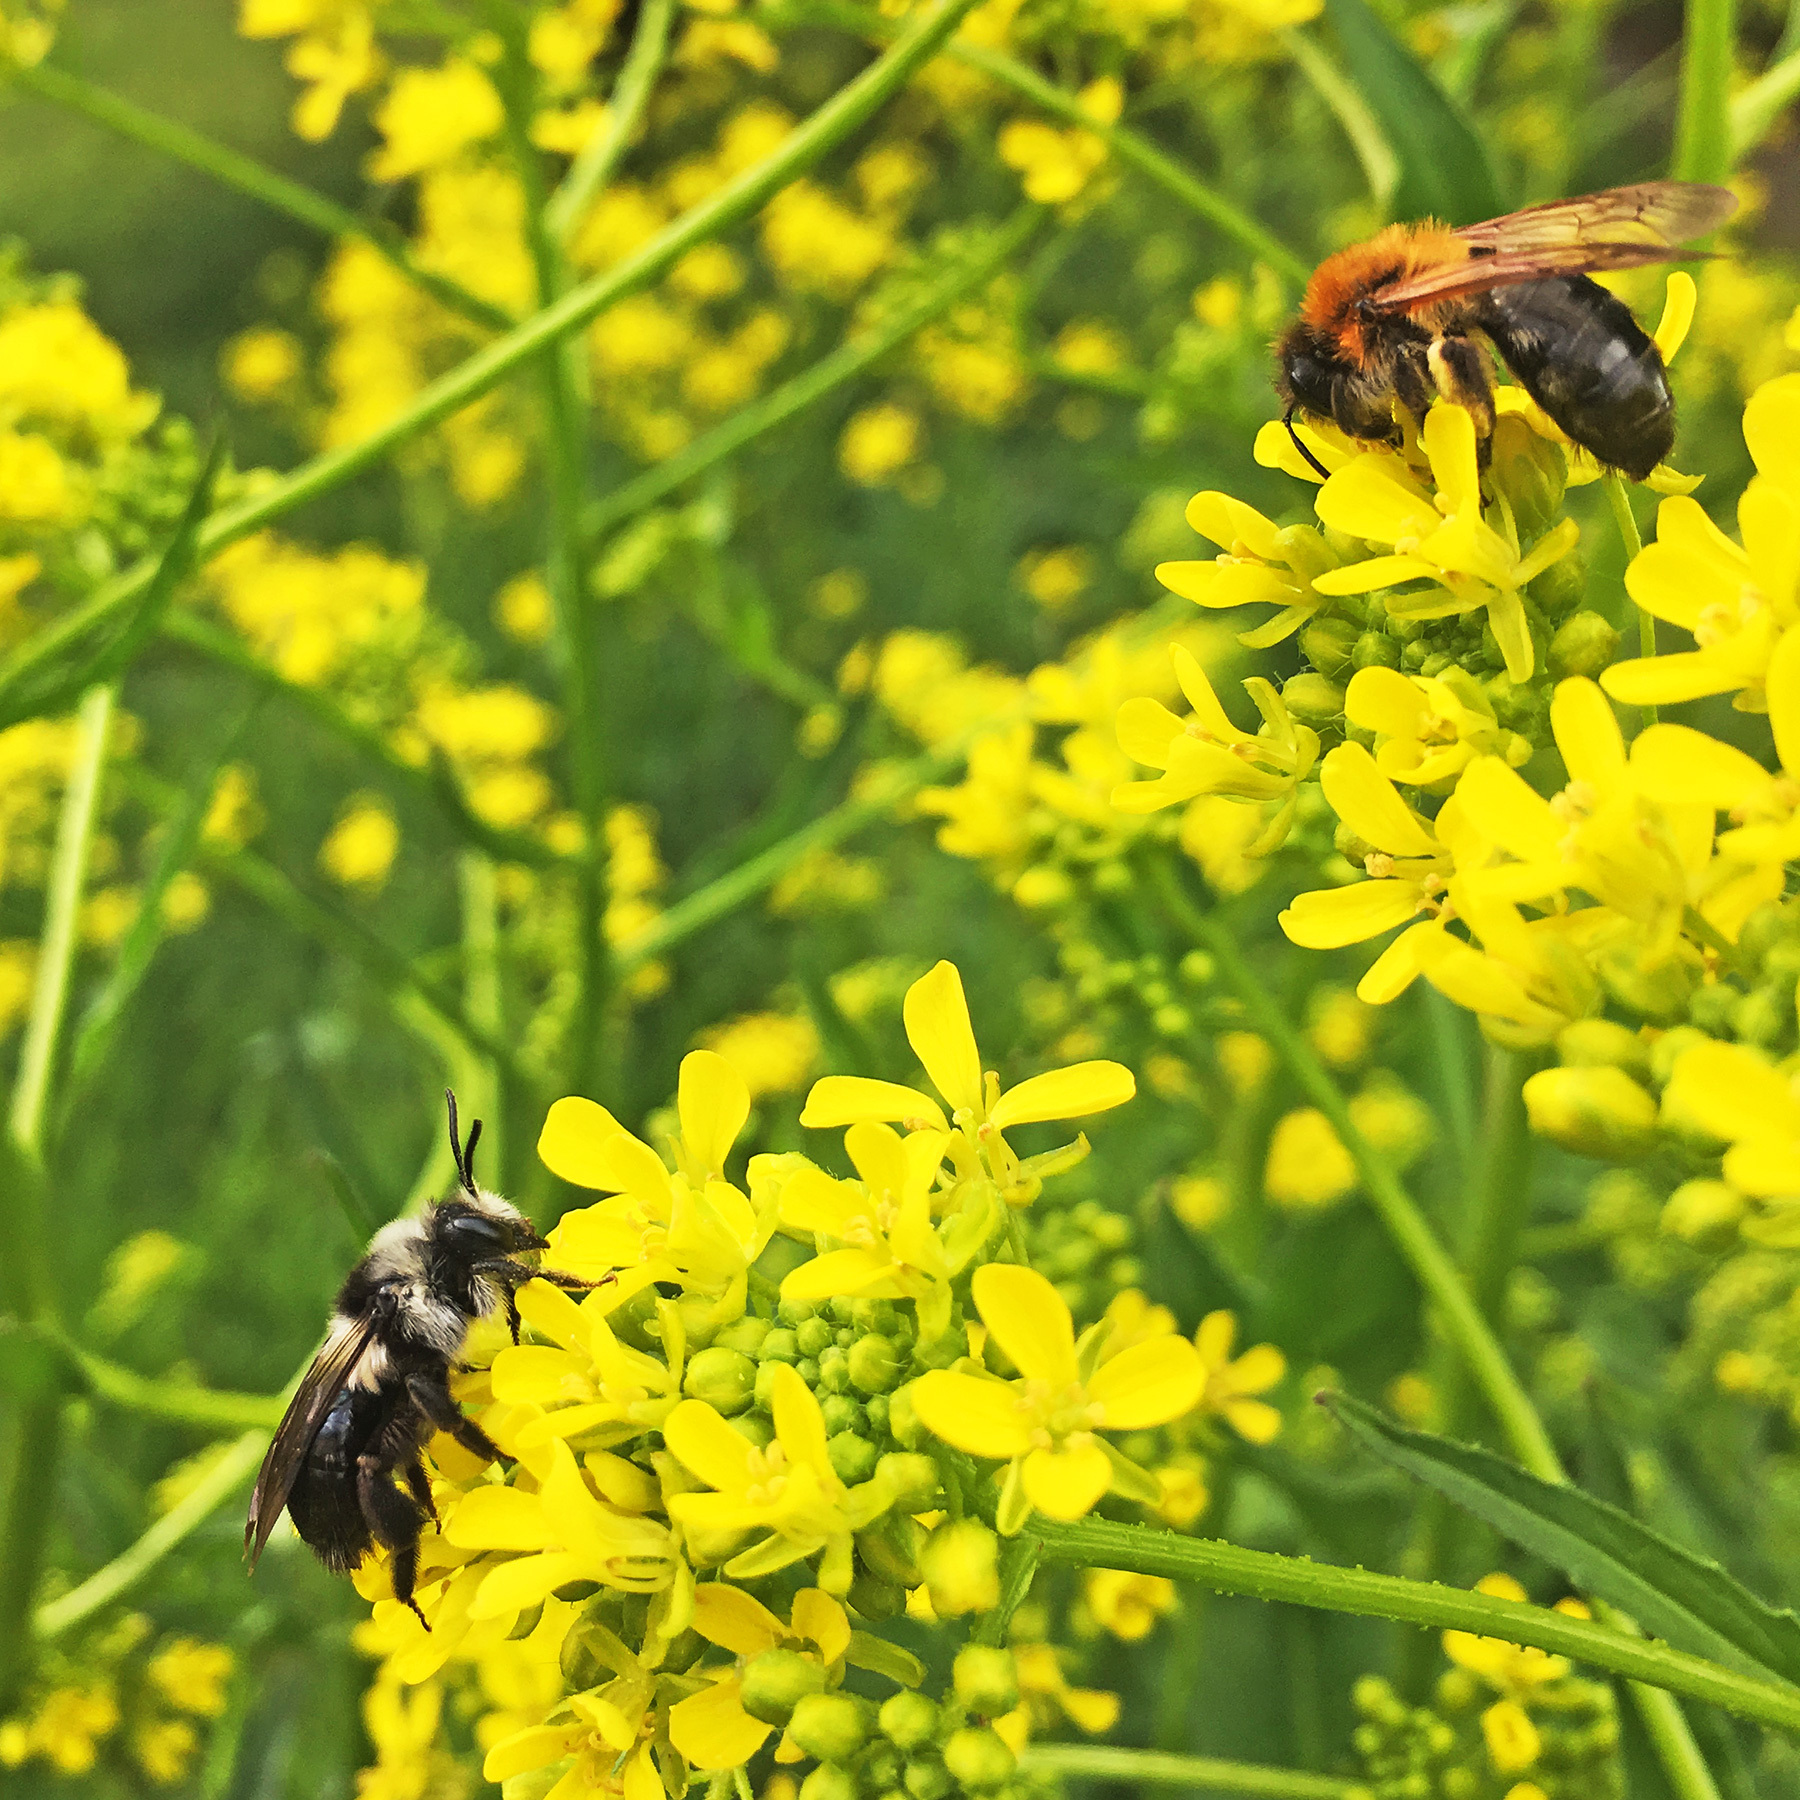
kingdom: Animalia
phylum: Arthropoda
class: Insecta
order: Hymenoptera
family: Andrenidae
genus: Andrena
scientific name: Andrena cineraria
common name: Ashy mining bee
